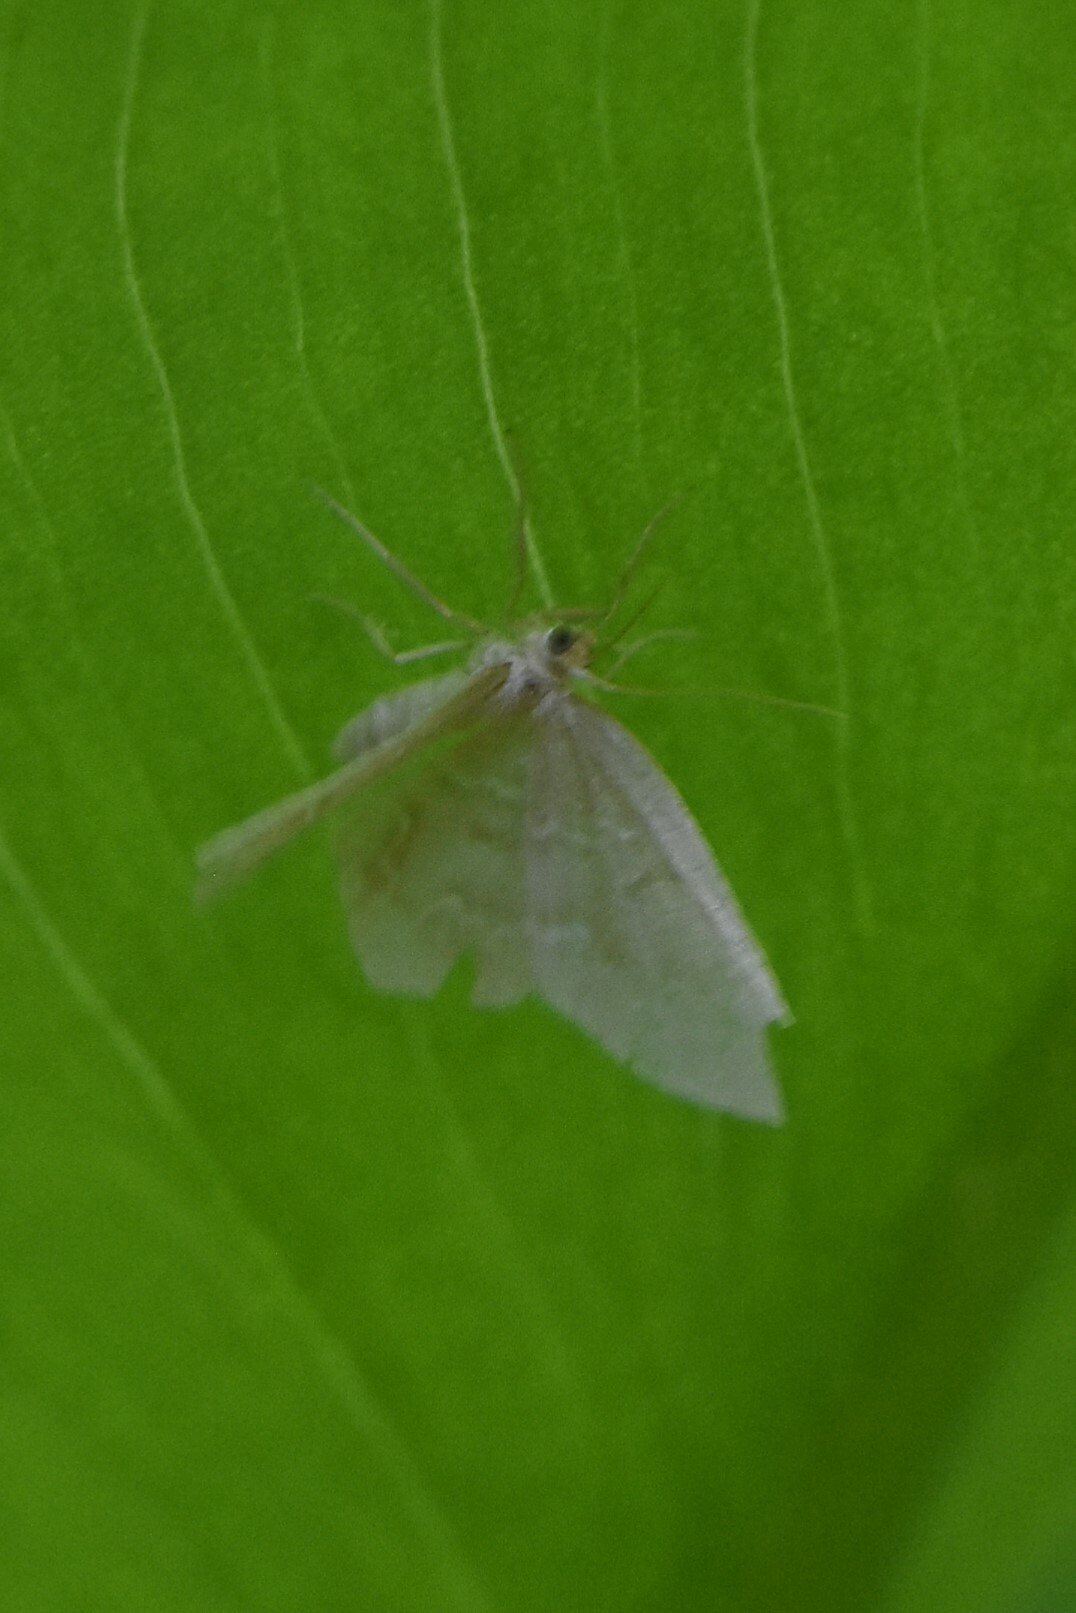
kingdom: Animalia
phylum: Arthropoda
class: Insecta
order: Lepidoptera
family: Geometridae
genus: Jodis
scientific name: Jodis putata
